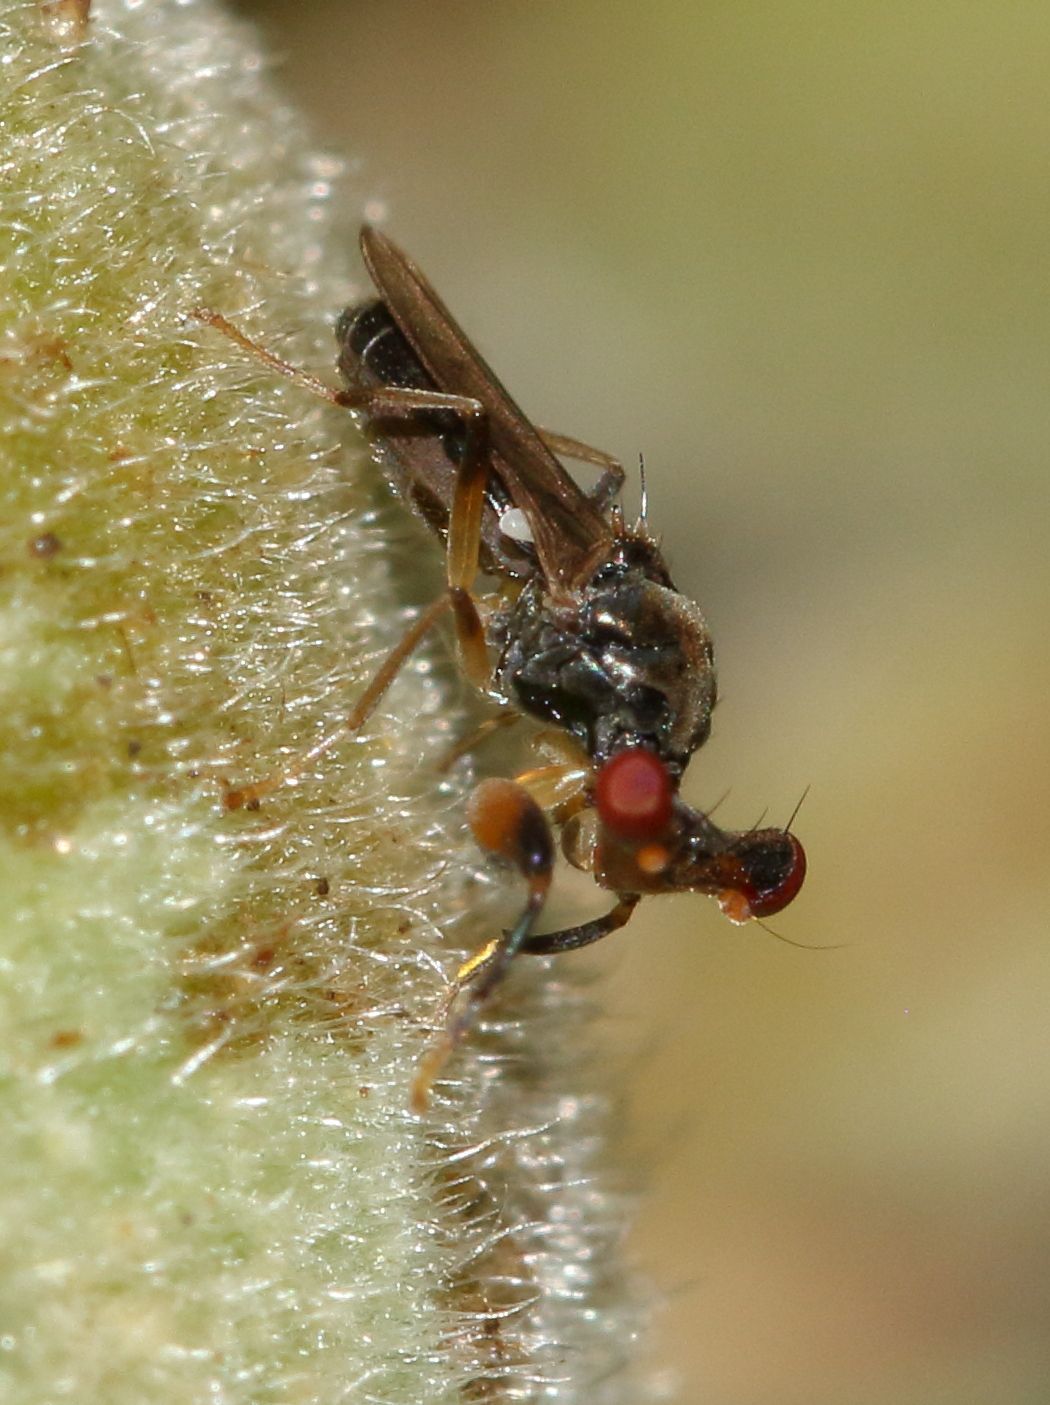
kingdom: Animalia
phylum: Arthropoda
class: Insecta
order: Diptera
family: Diopsidae
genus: Sphyracephala
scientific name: Sphyracephala beccarii
